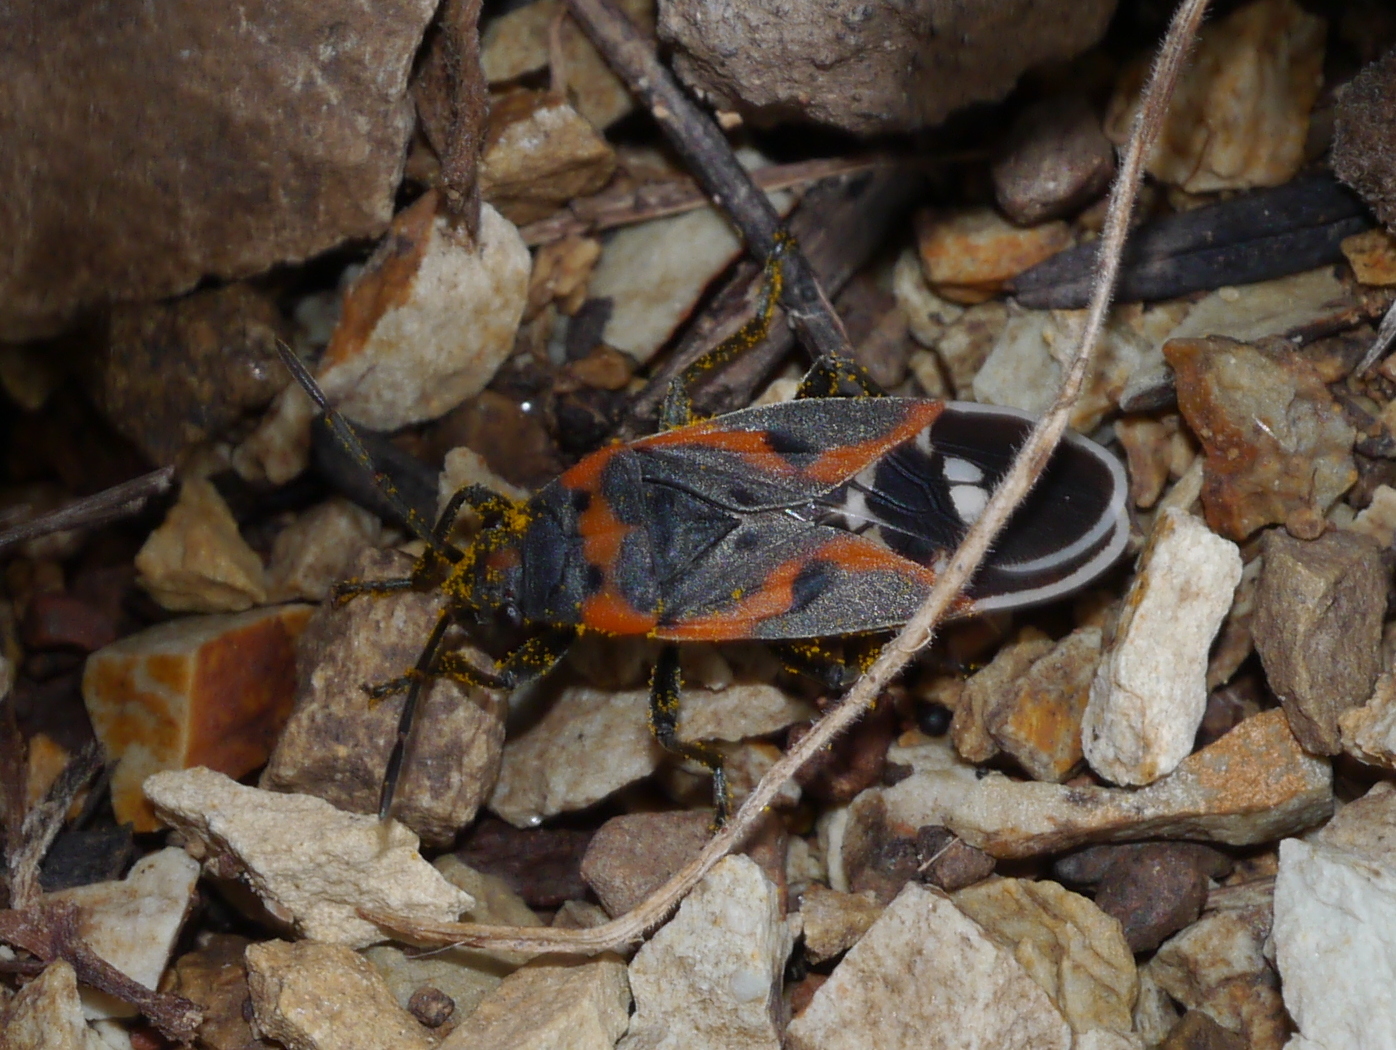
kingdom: Animalia
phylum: Arthropoda
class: Insecta
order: Hemiptera
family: Lygaeidae
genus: Lygaeus
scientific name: Lygaeus kalmii
